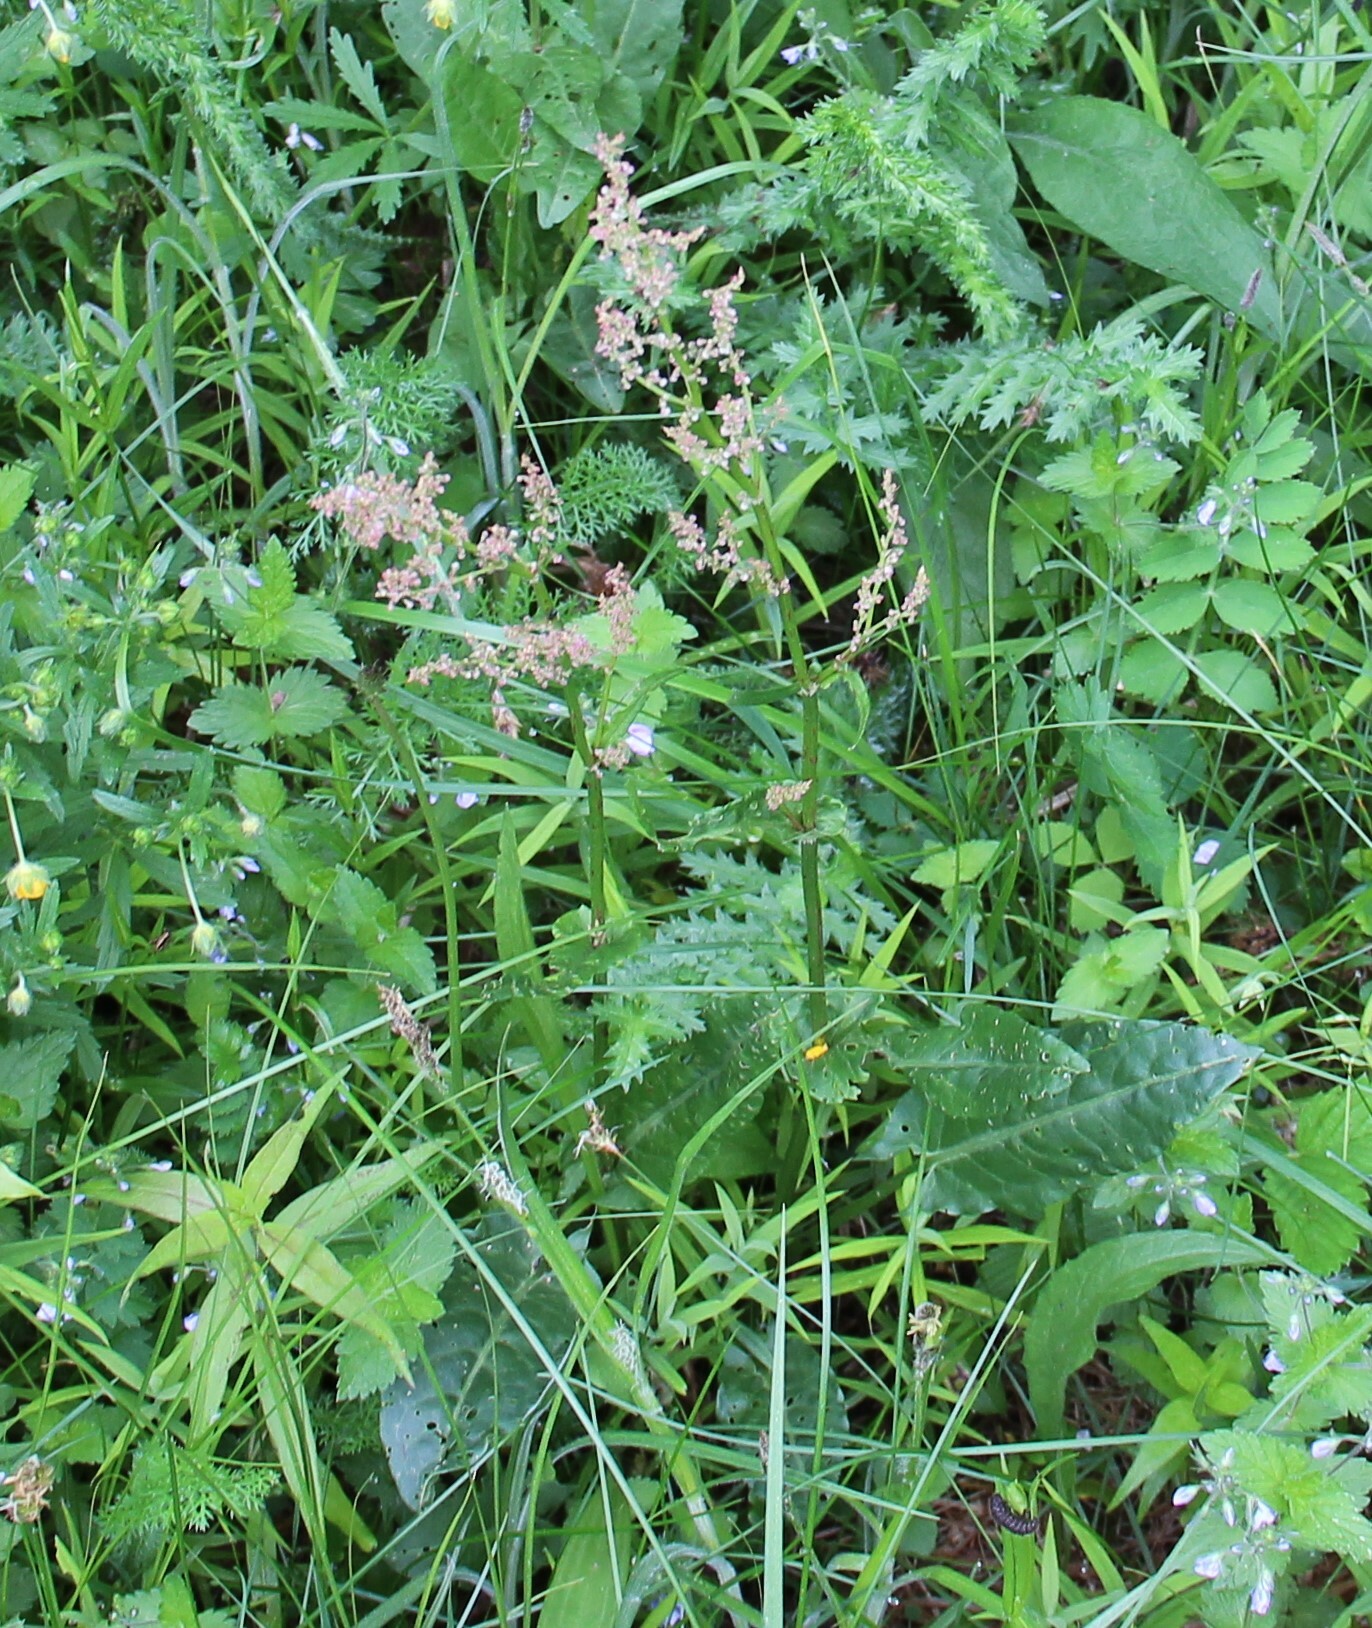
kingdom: Plantae
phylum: Tracheophyta
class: Magnoliopsida
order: Caryophyllales
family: Polygonaceae
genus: Rumex
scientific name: Rumex acetosa
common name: Garden sorrel
